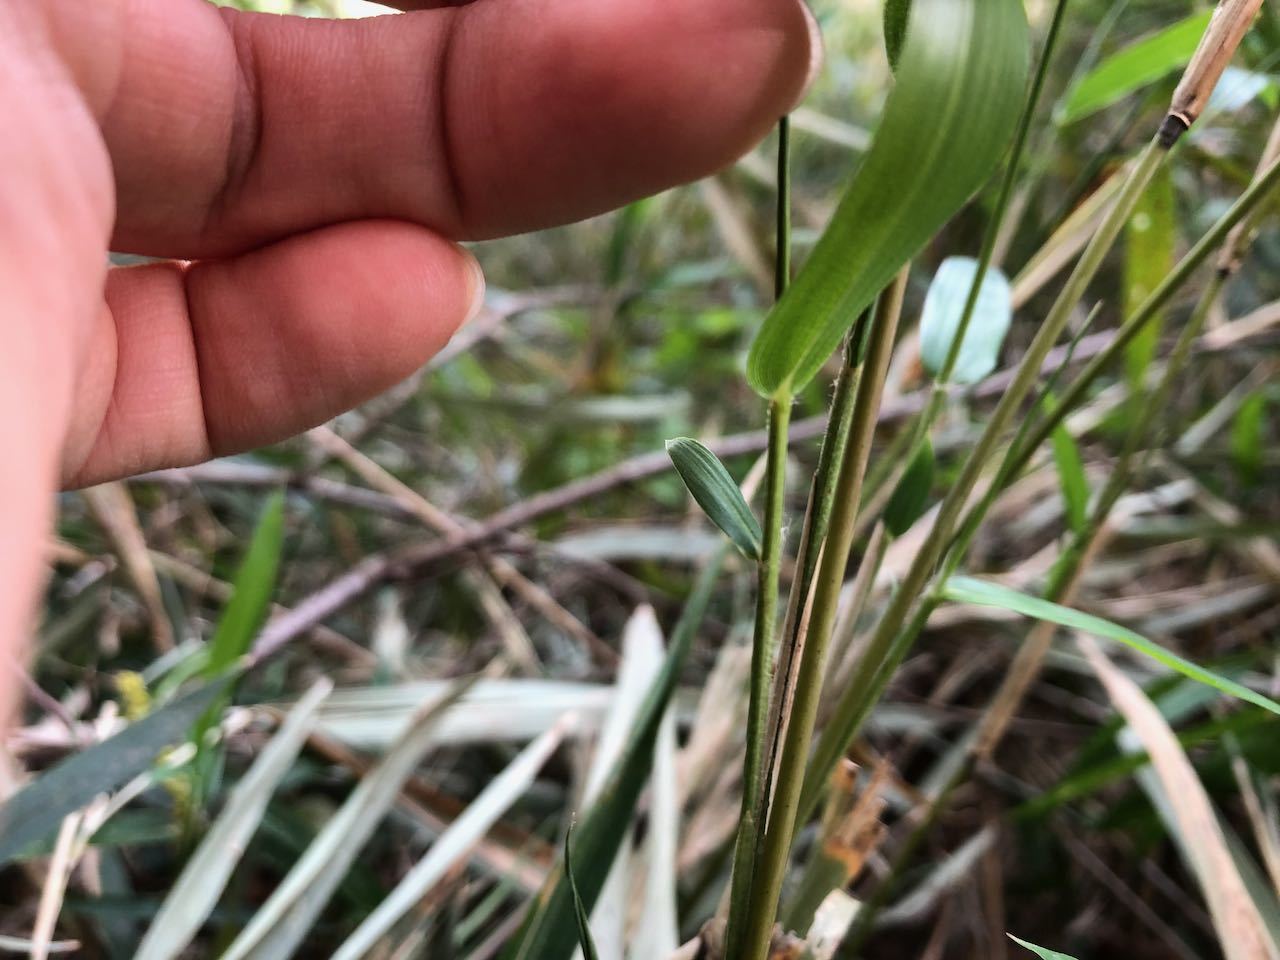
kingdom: Plantae
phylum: Tracheophyta
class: Liliopsida
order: Poales
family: Poaceae
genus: Pleioblastus
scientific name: Pleioblastus argenteostriatus
